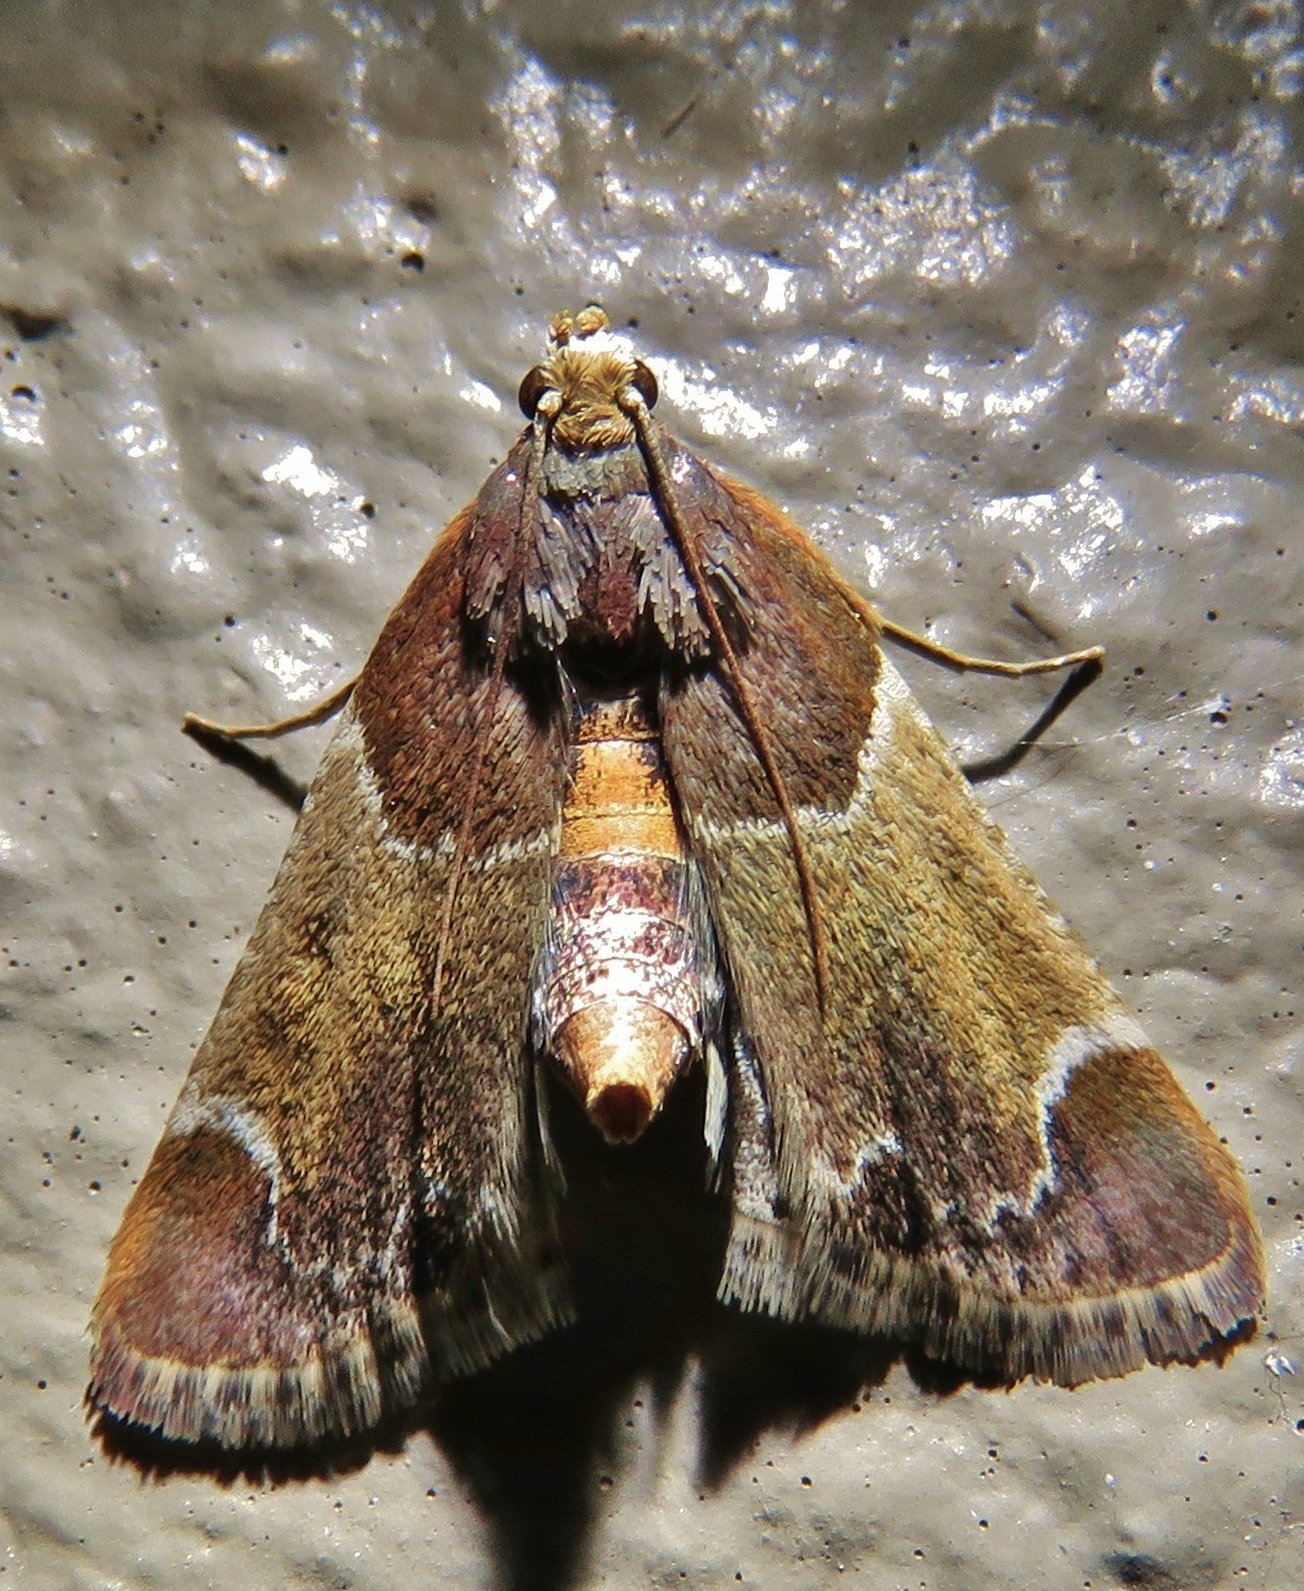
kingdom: Animalia
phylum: Arthropoda
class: Insecta
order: Lepidoptera
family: Pyralidae
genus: Pyralis
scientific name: Pyralis farinalis
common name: Meal moth
